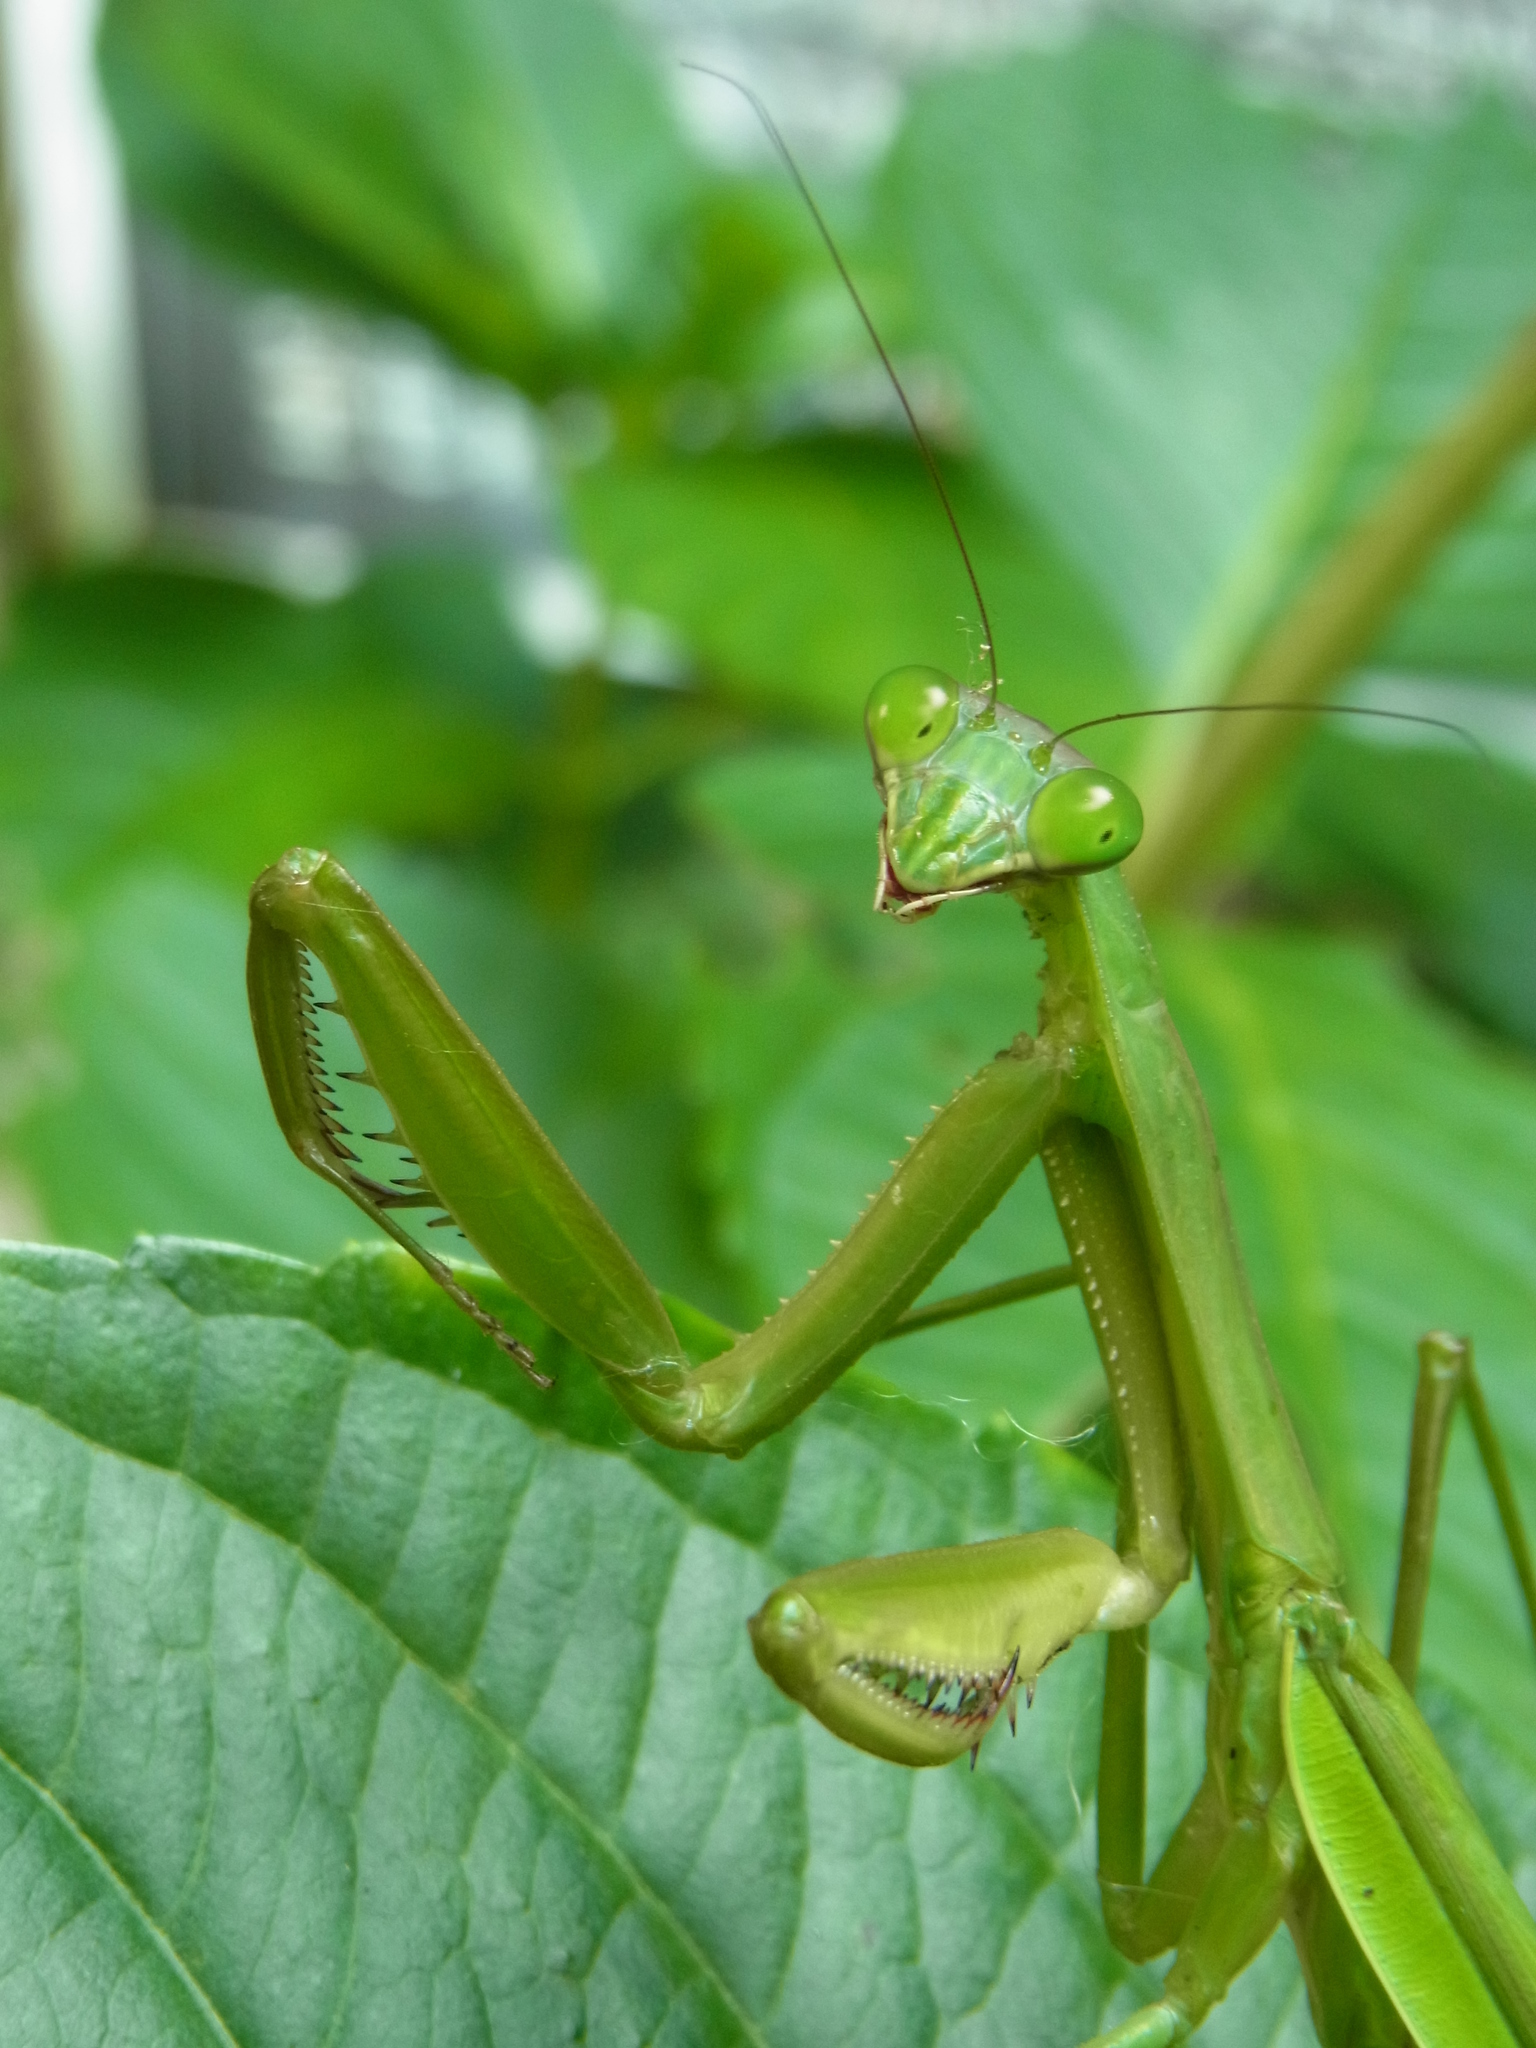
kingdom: Animalia
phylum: Arthropoda
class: Insecta
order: Mantodea
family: Mantidae
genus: Tenodera
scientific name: Tenodera sinensis
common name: Chinese mantis
